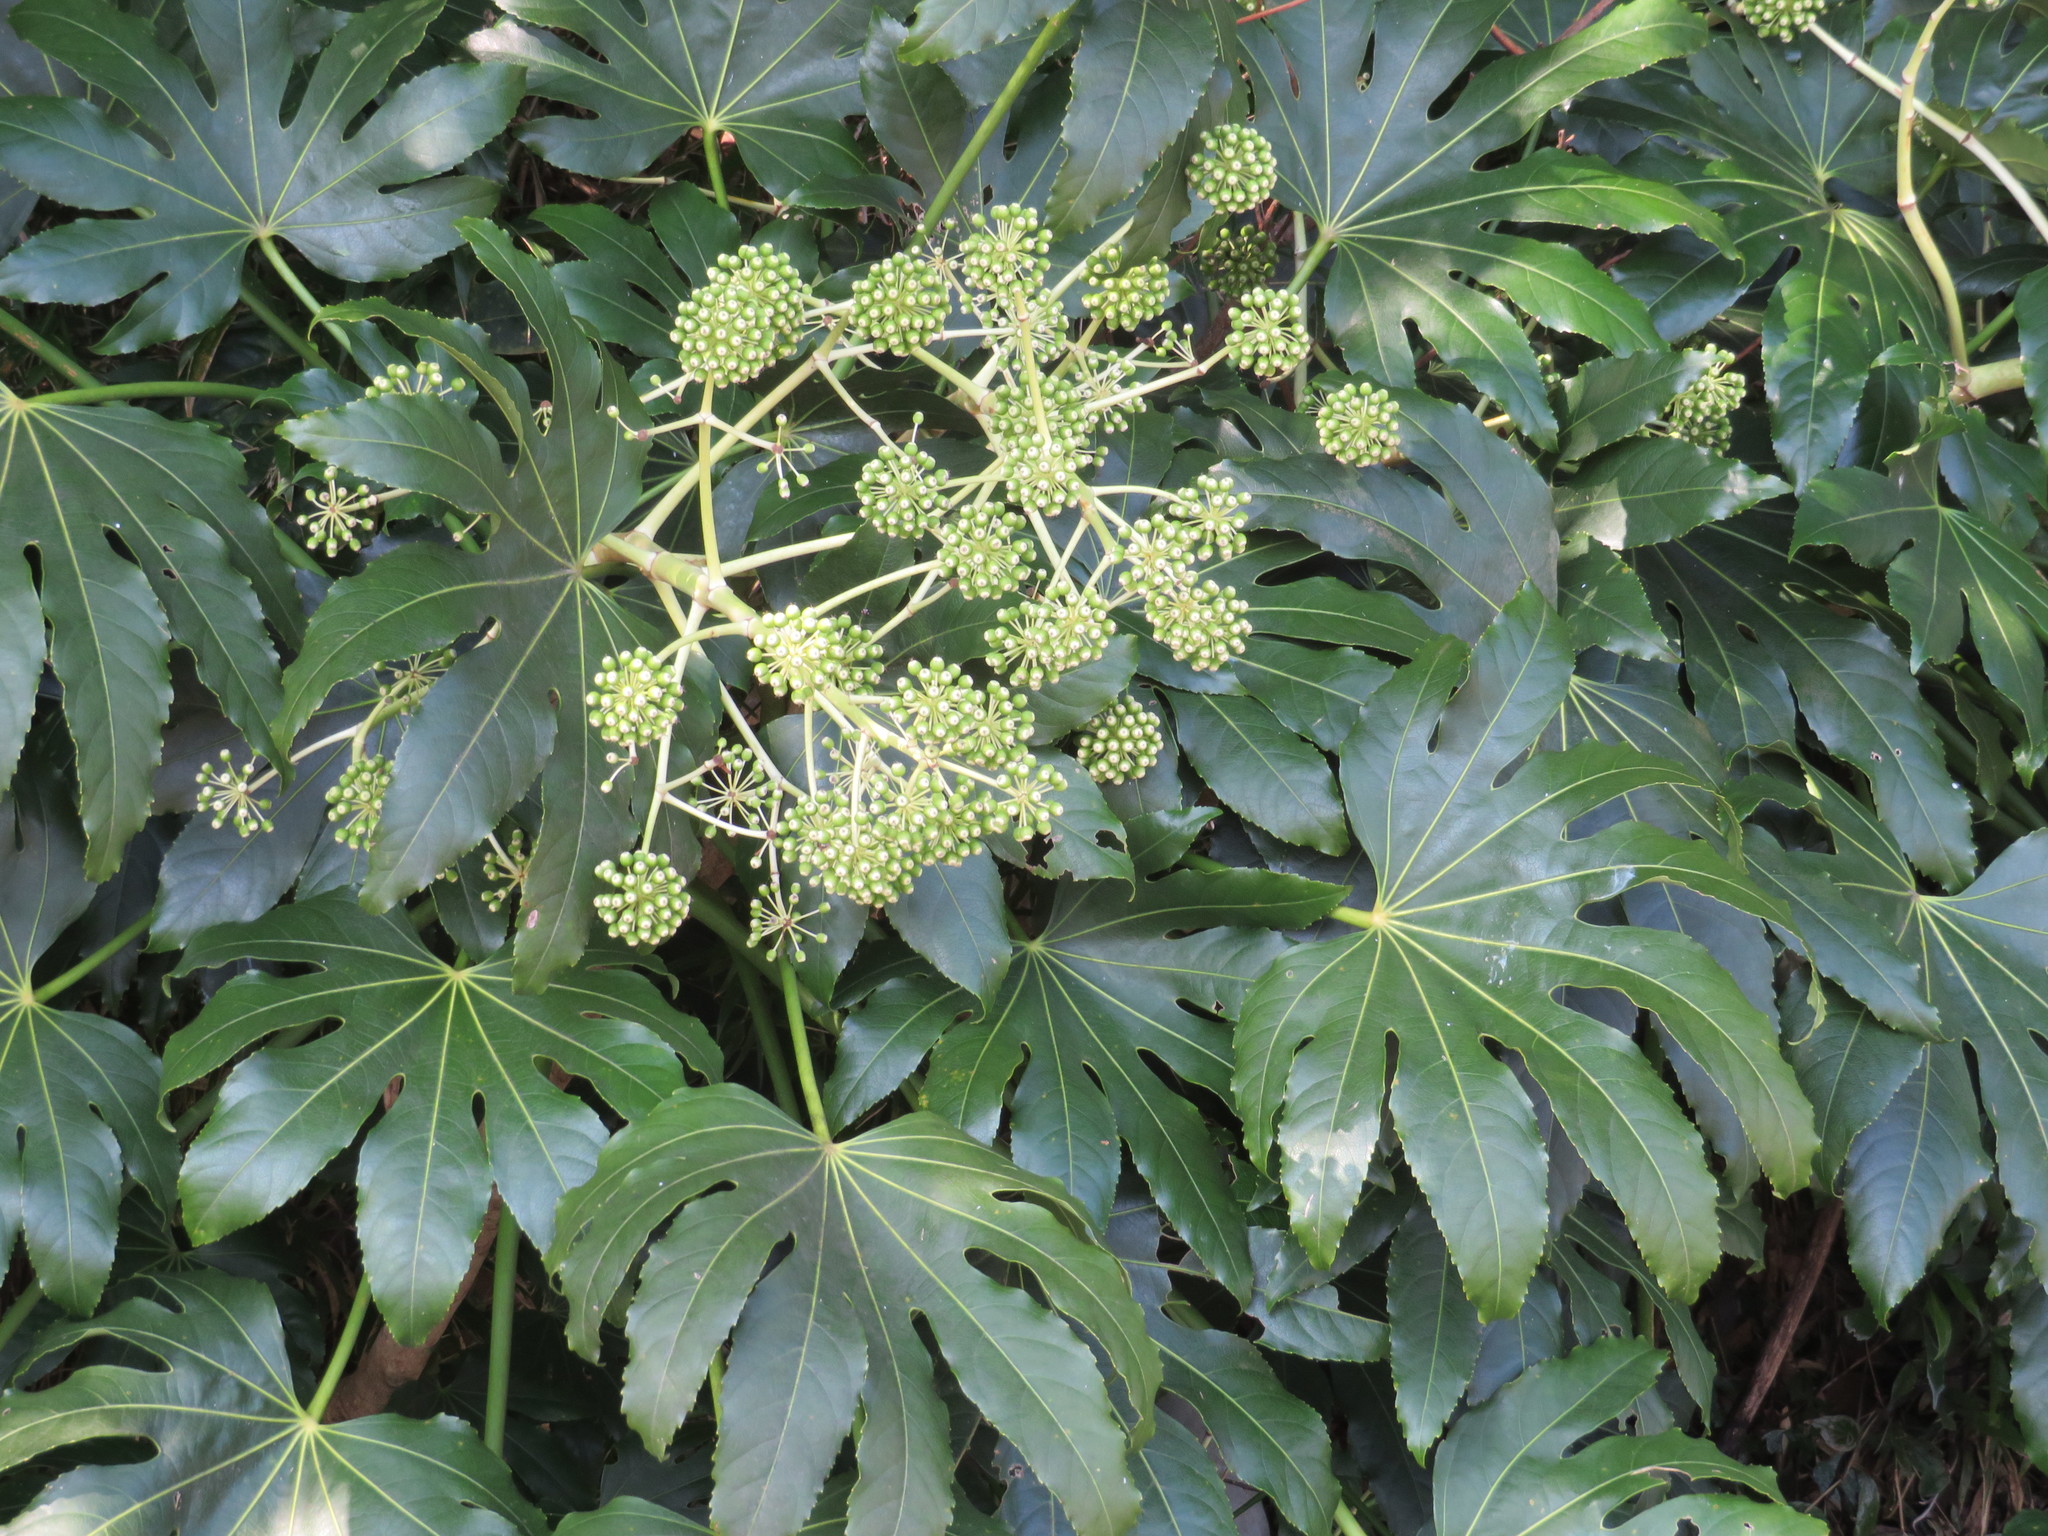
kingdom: Plantae
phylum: Tracheophyta
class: Magnoliopsida
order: Apiales
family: Araliaceae
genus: Fatsia
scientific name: Fatsia japonica
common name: Fatsia
